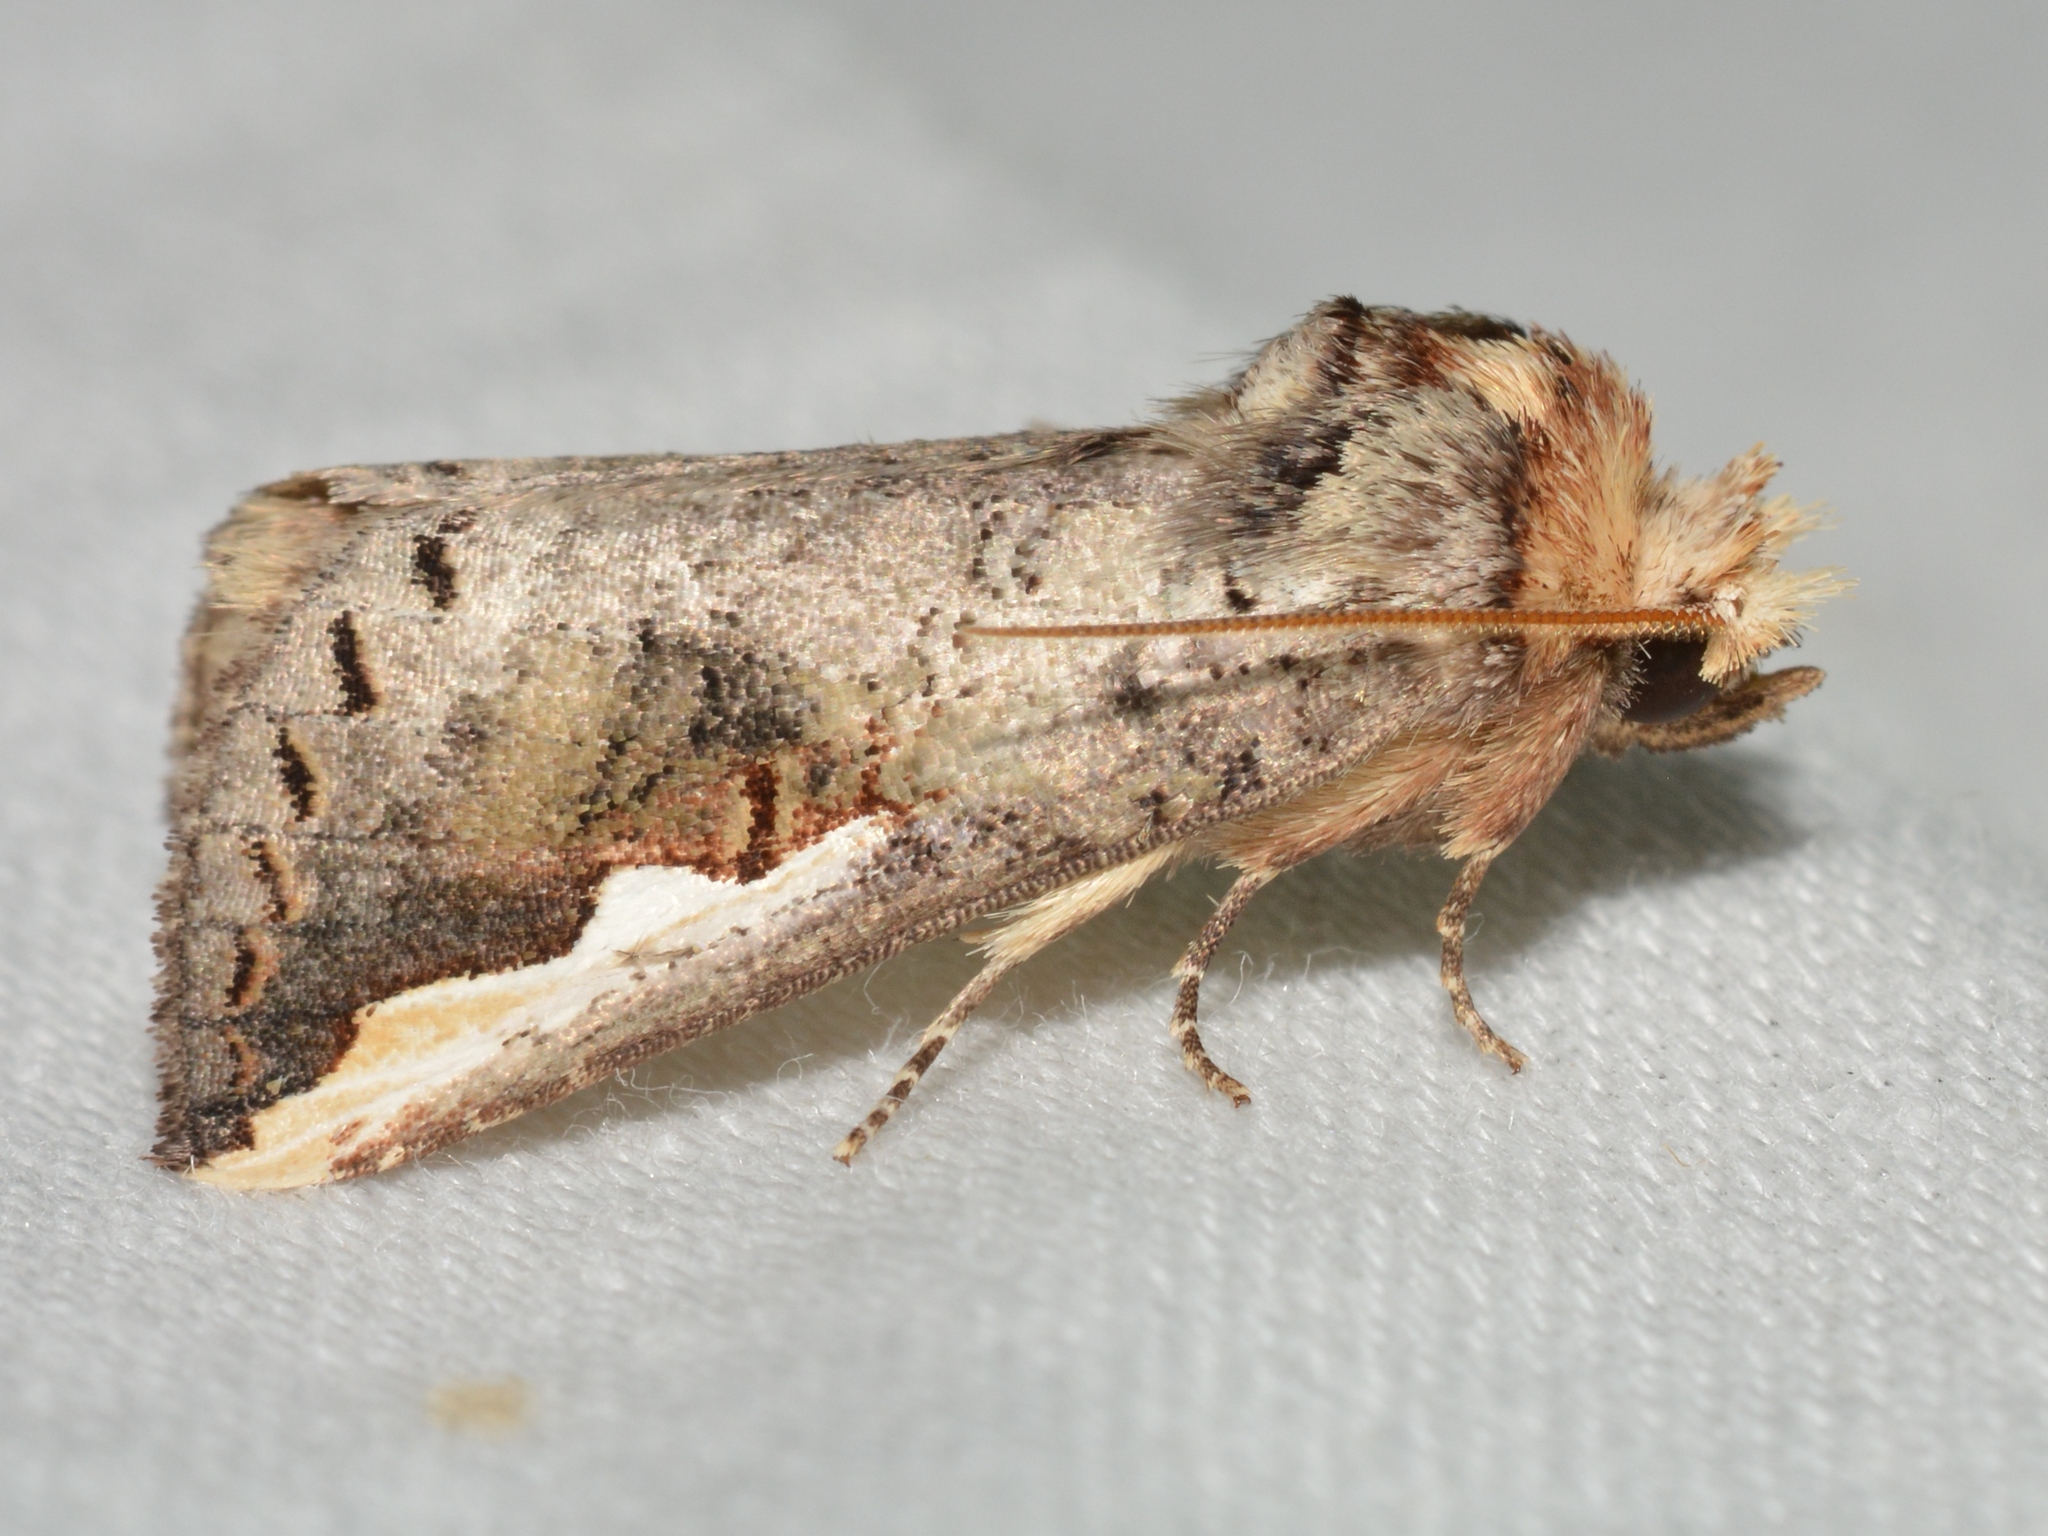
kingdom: Animalia
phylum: Arthropoda
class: Insecta
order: Lepidoptera
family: Notodontidae
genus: Symmerista
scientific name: Symmerista
